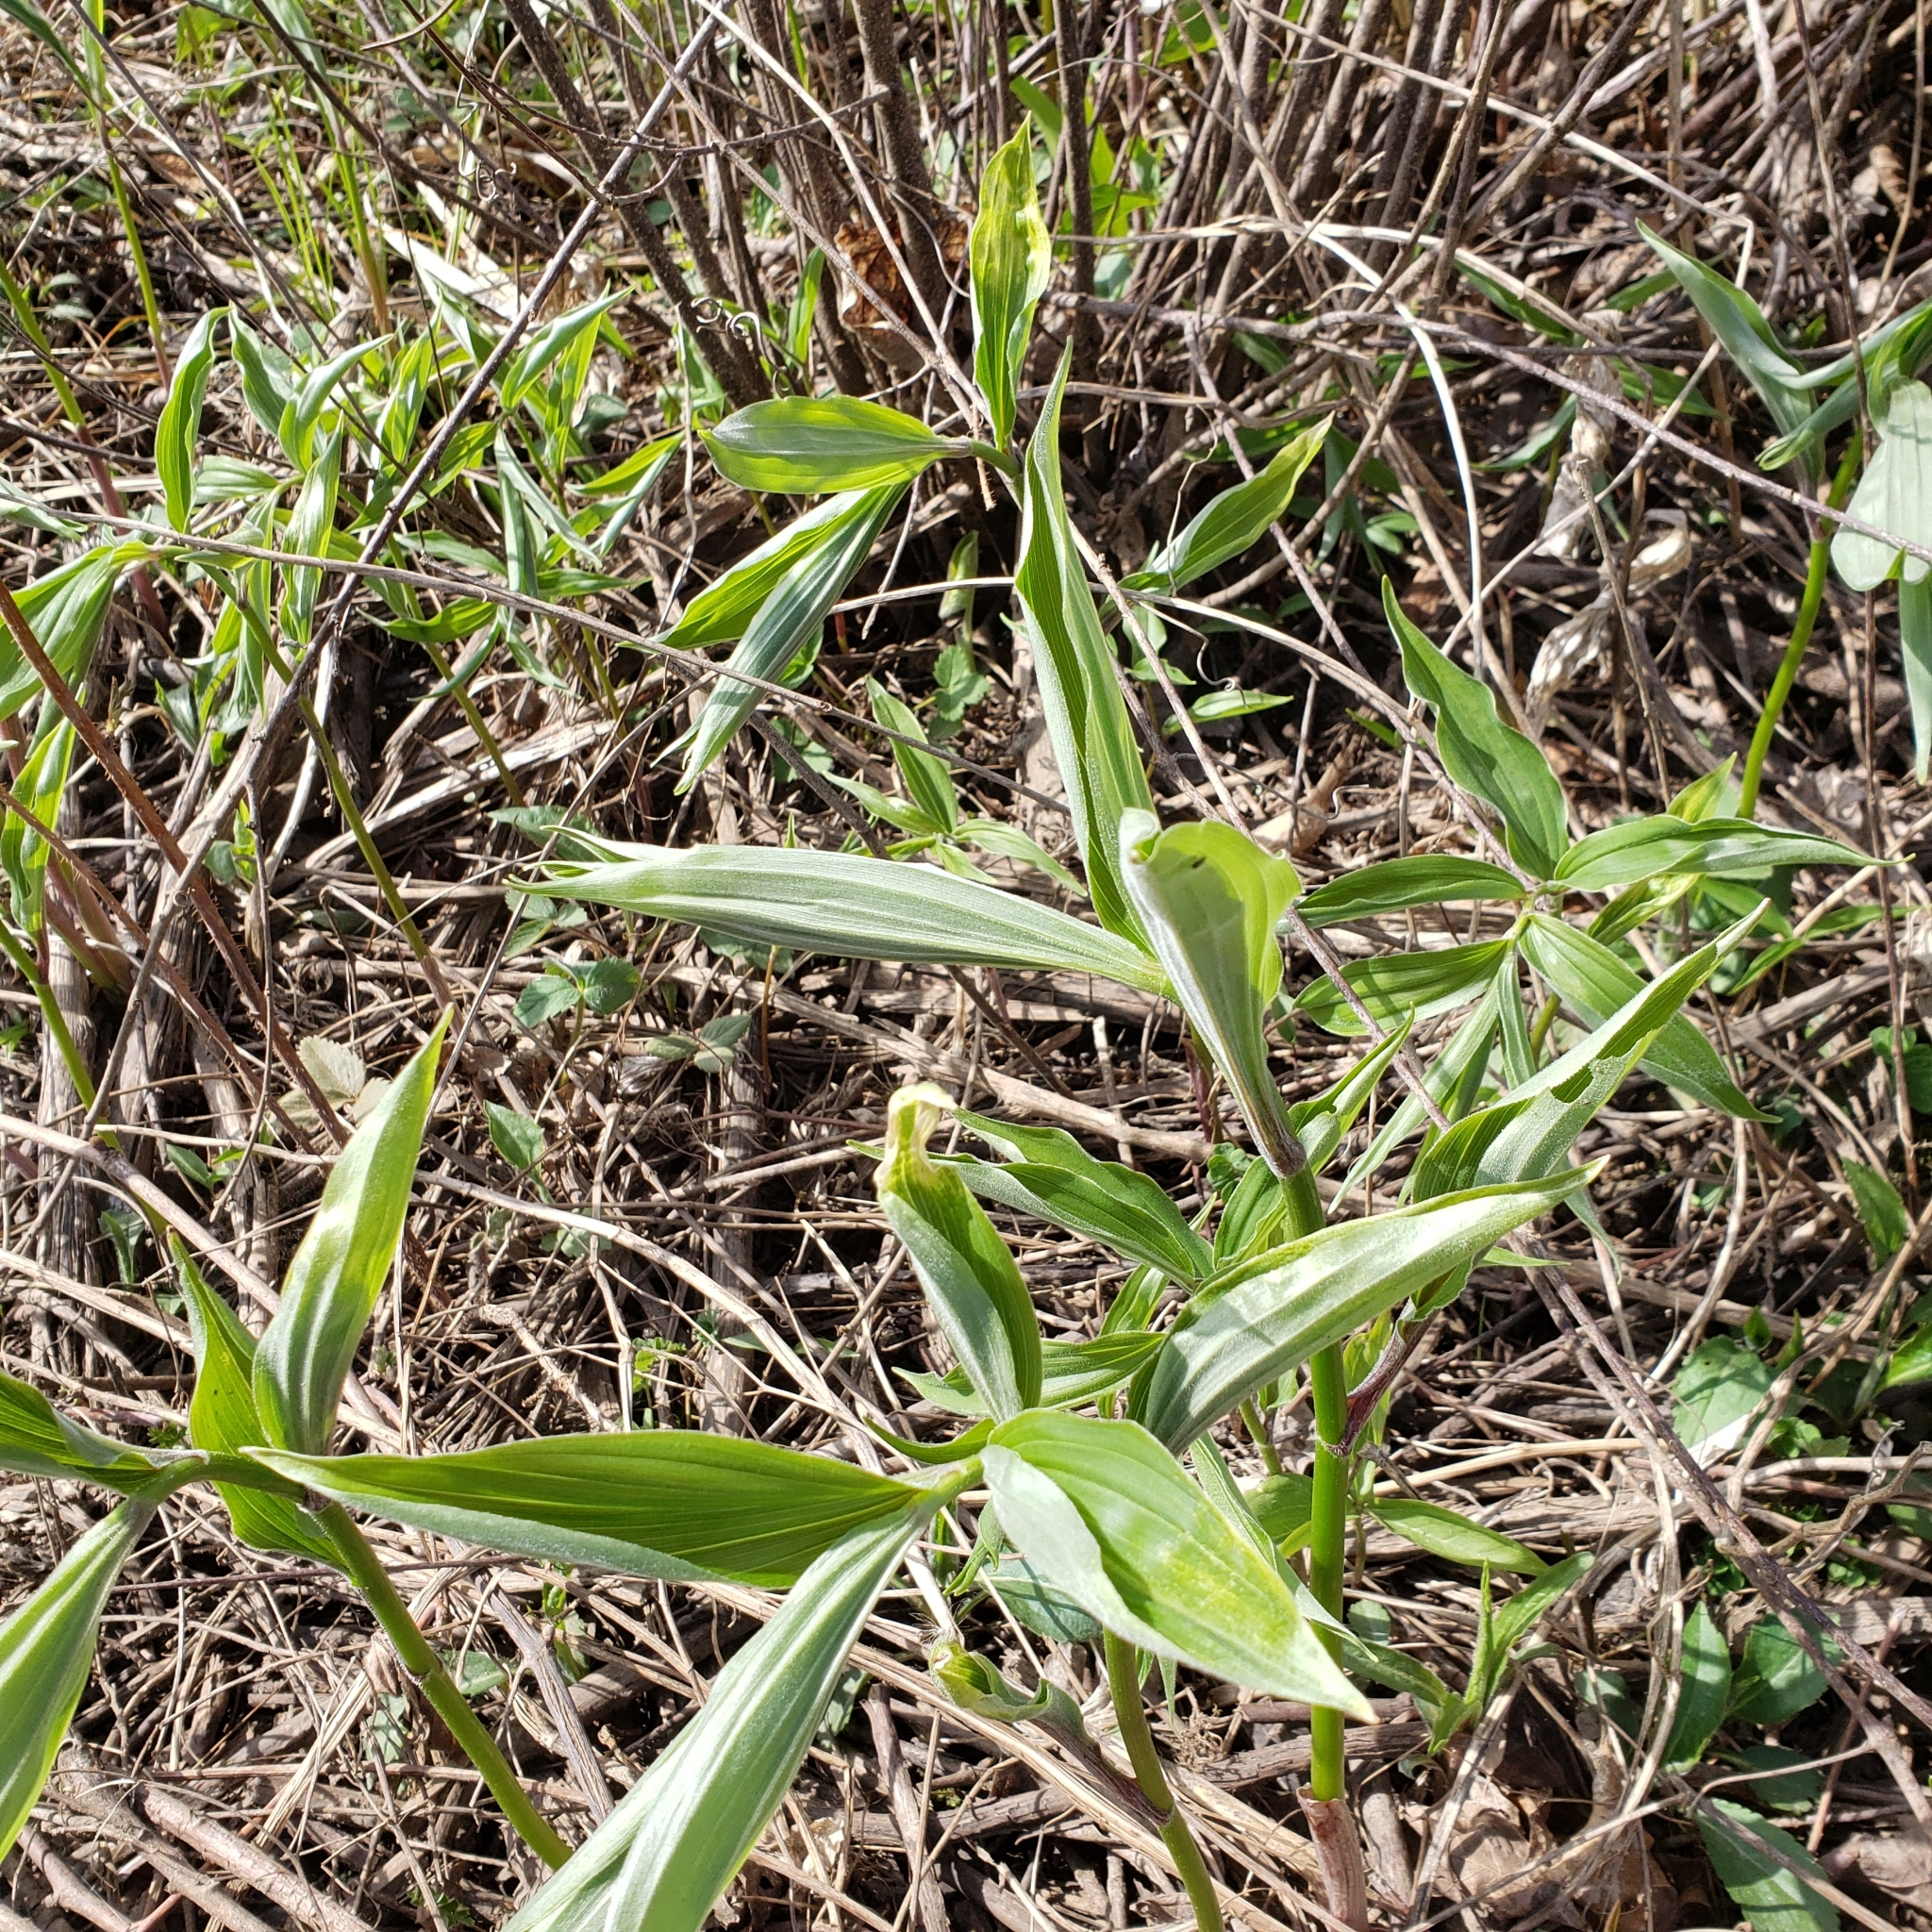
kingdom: Plantae
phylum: Tracheophyta
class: Liliopsida
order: Asparagales
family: Asparagaceae
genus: Maianthemum
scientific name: Maianthemum racemosum
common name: False spikenard
